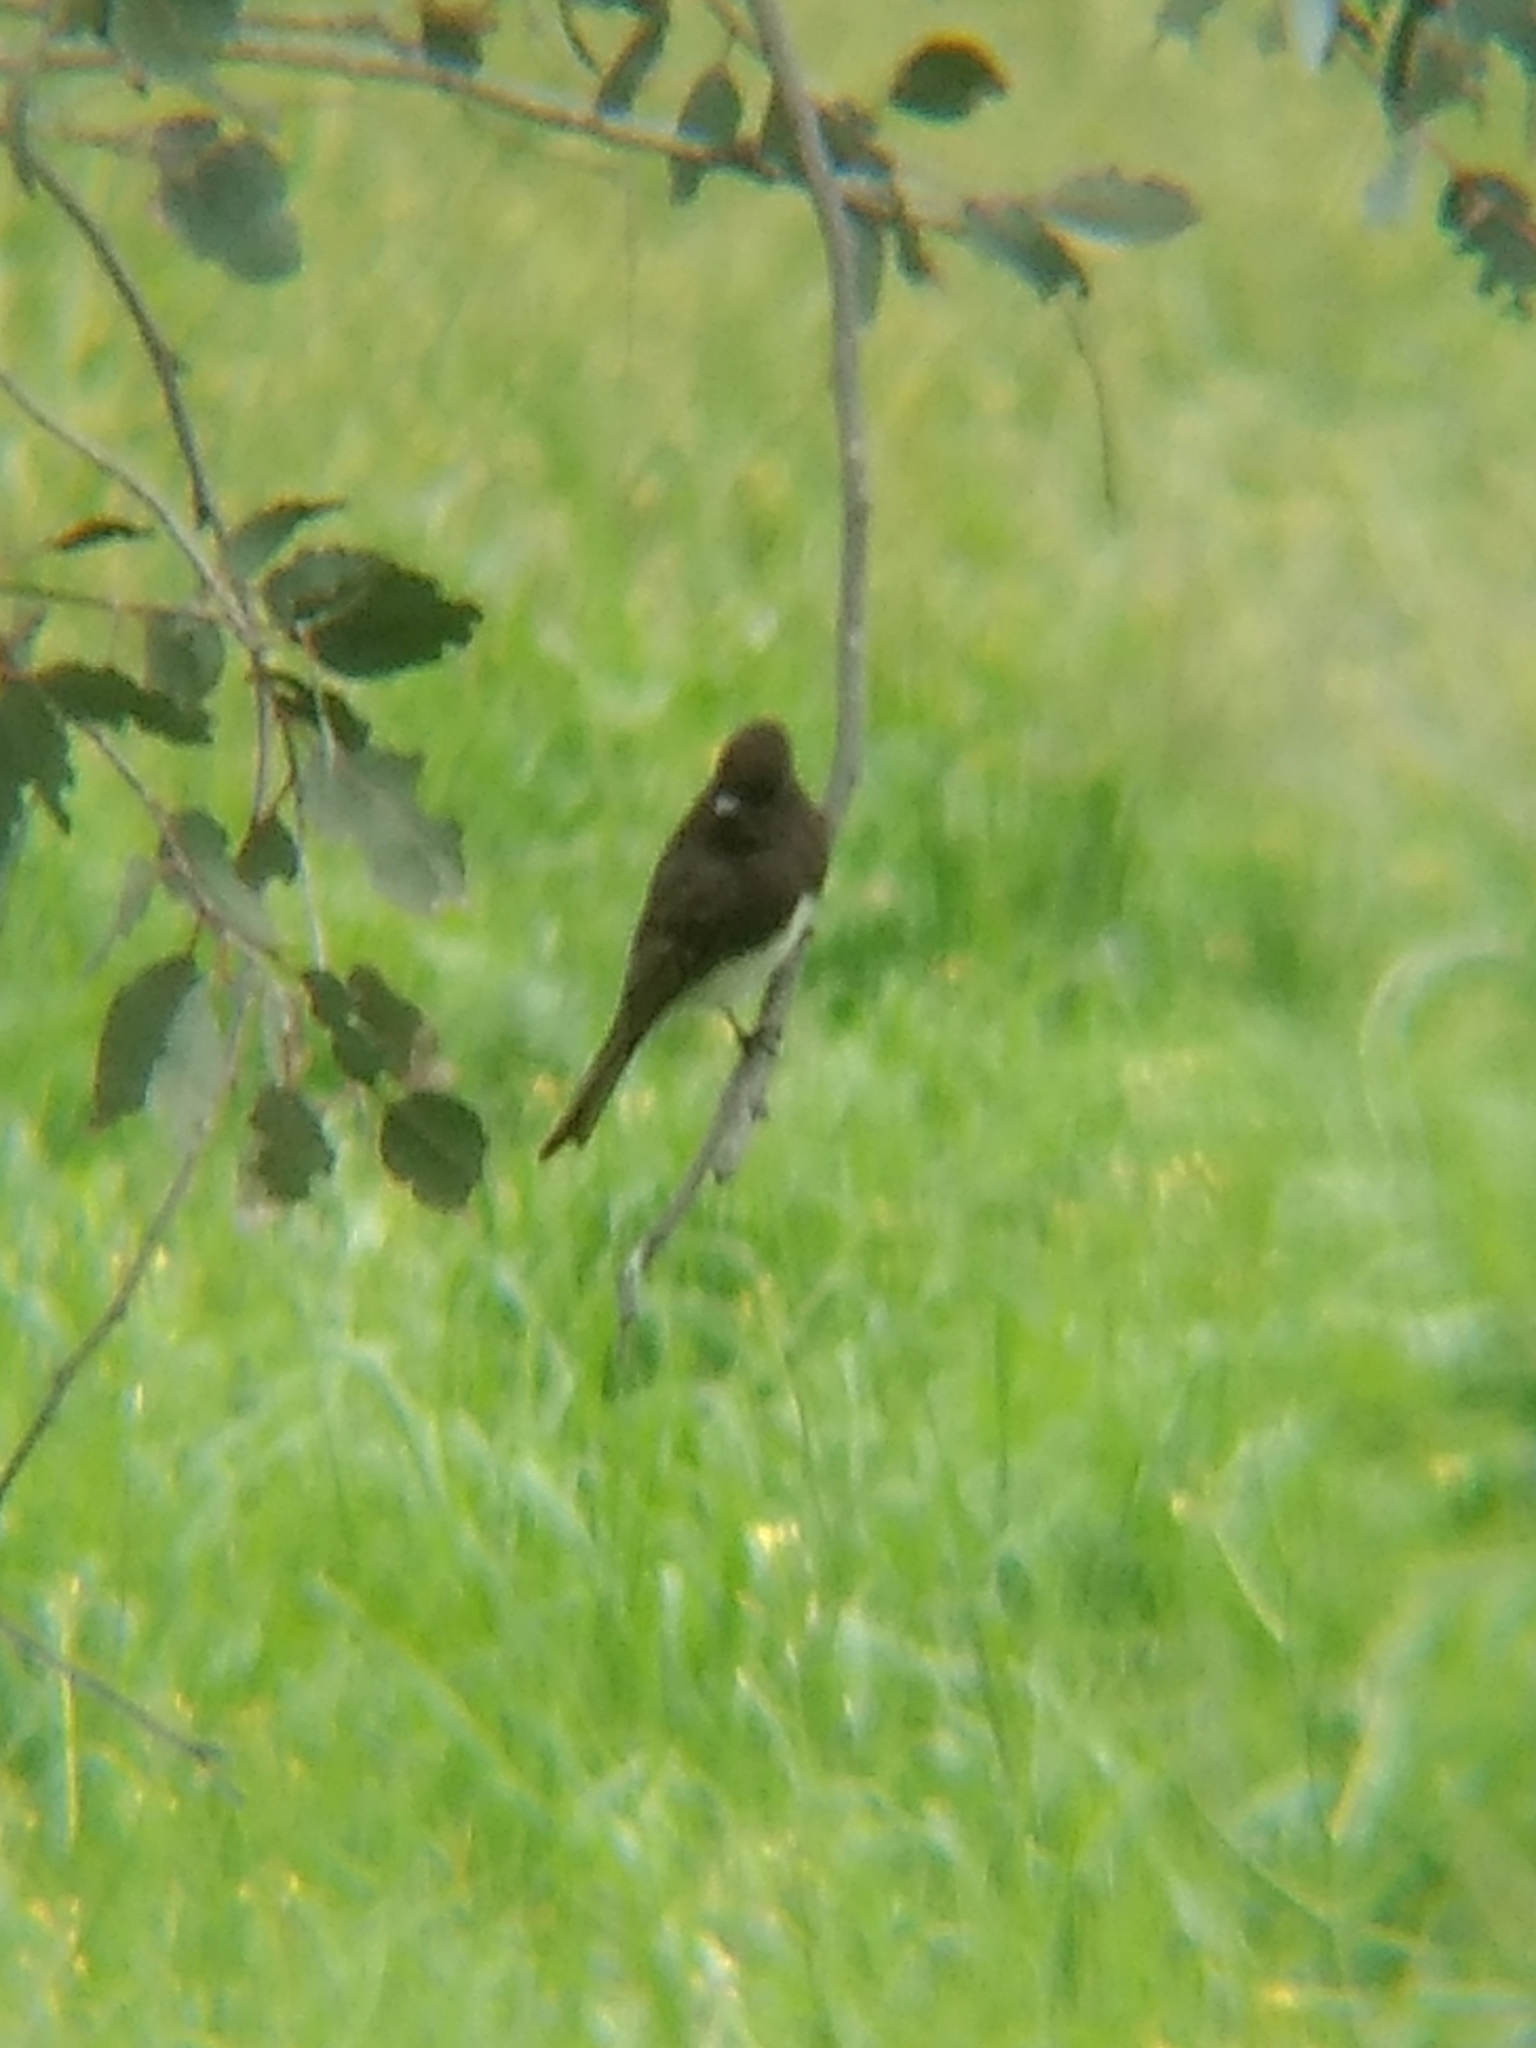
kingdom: Animalia
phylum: Chordata
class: Aves
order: Passeriformes
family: Tyrannidae
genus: Sayornis
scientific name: Sayornis nigricans
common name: Black phoebe
